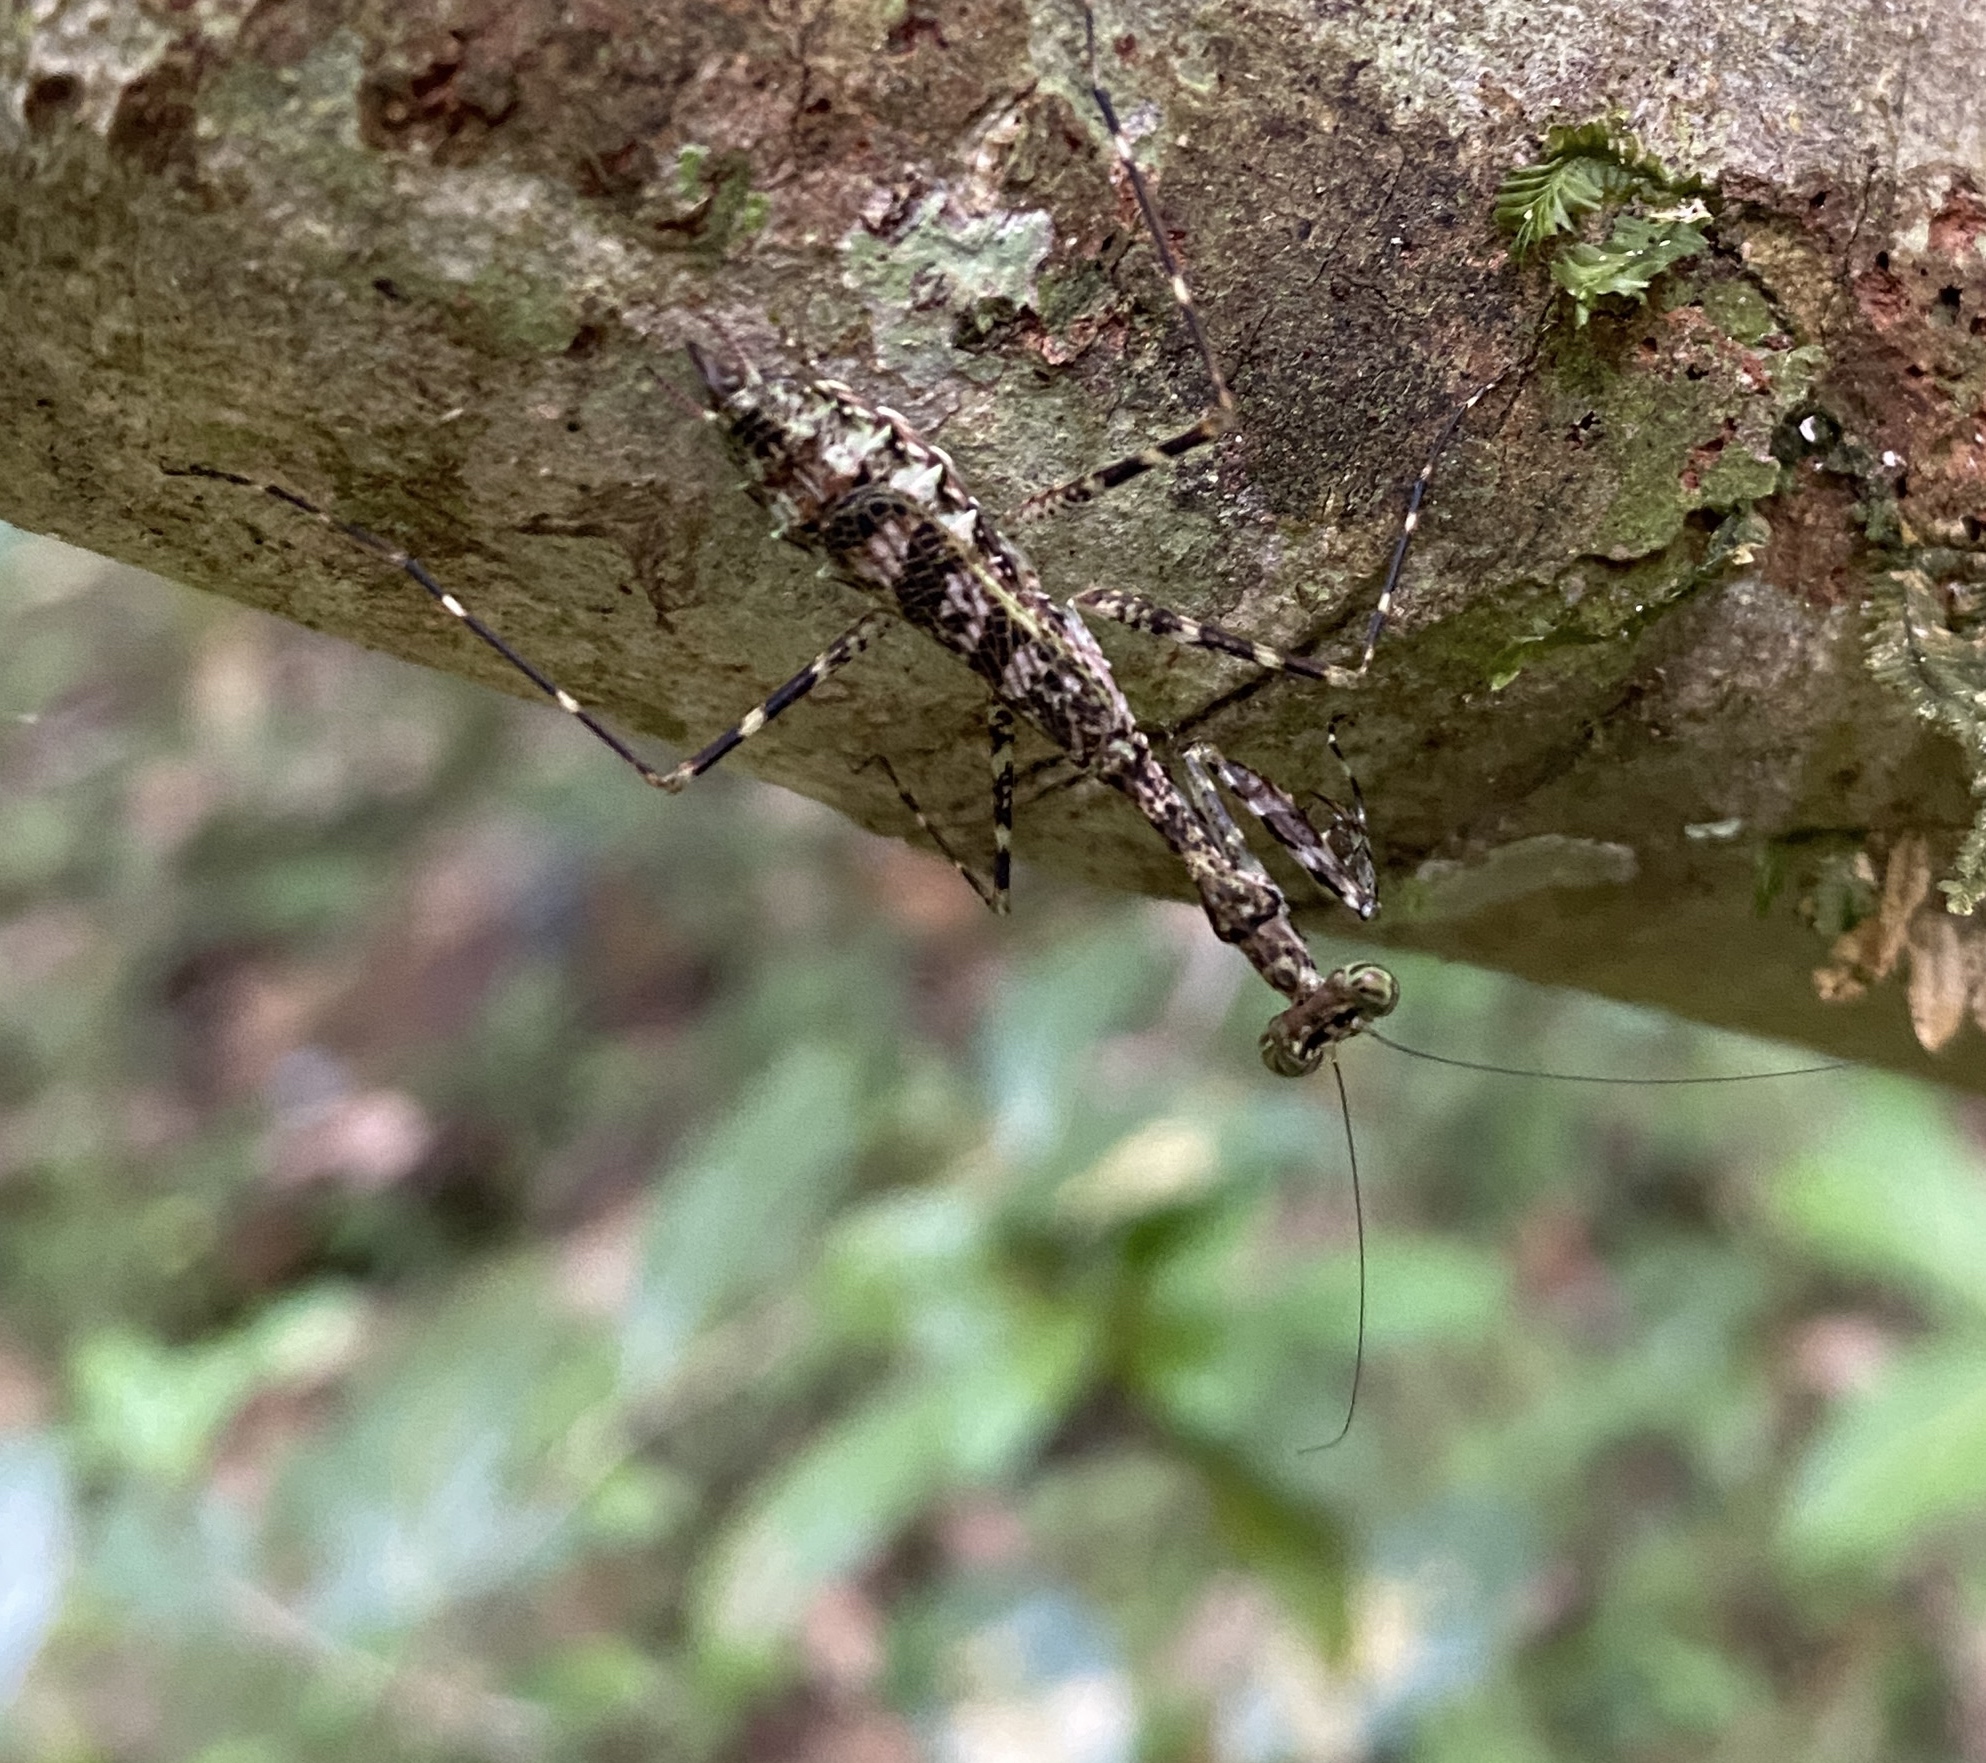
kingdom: Animalia
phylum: Arthropoda
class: Insecta
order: Mantodea
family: Majangidae
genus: Liturgusella
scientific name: Liturgusella malagassa
